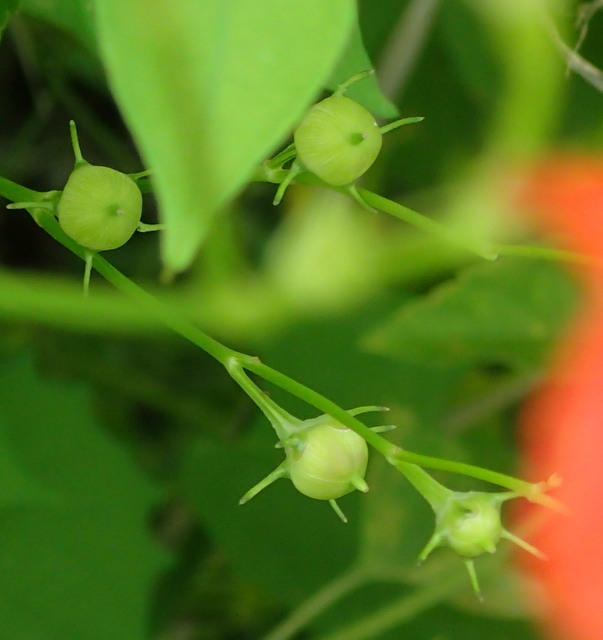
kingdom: Plantae
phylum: Tracheophyta
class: Magnoliopsida
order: Solanales
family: Convolvulaceae
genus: Ipomoea
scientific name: Ipomoea hederifolia
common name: Ivy-leaf morning-glory
